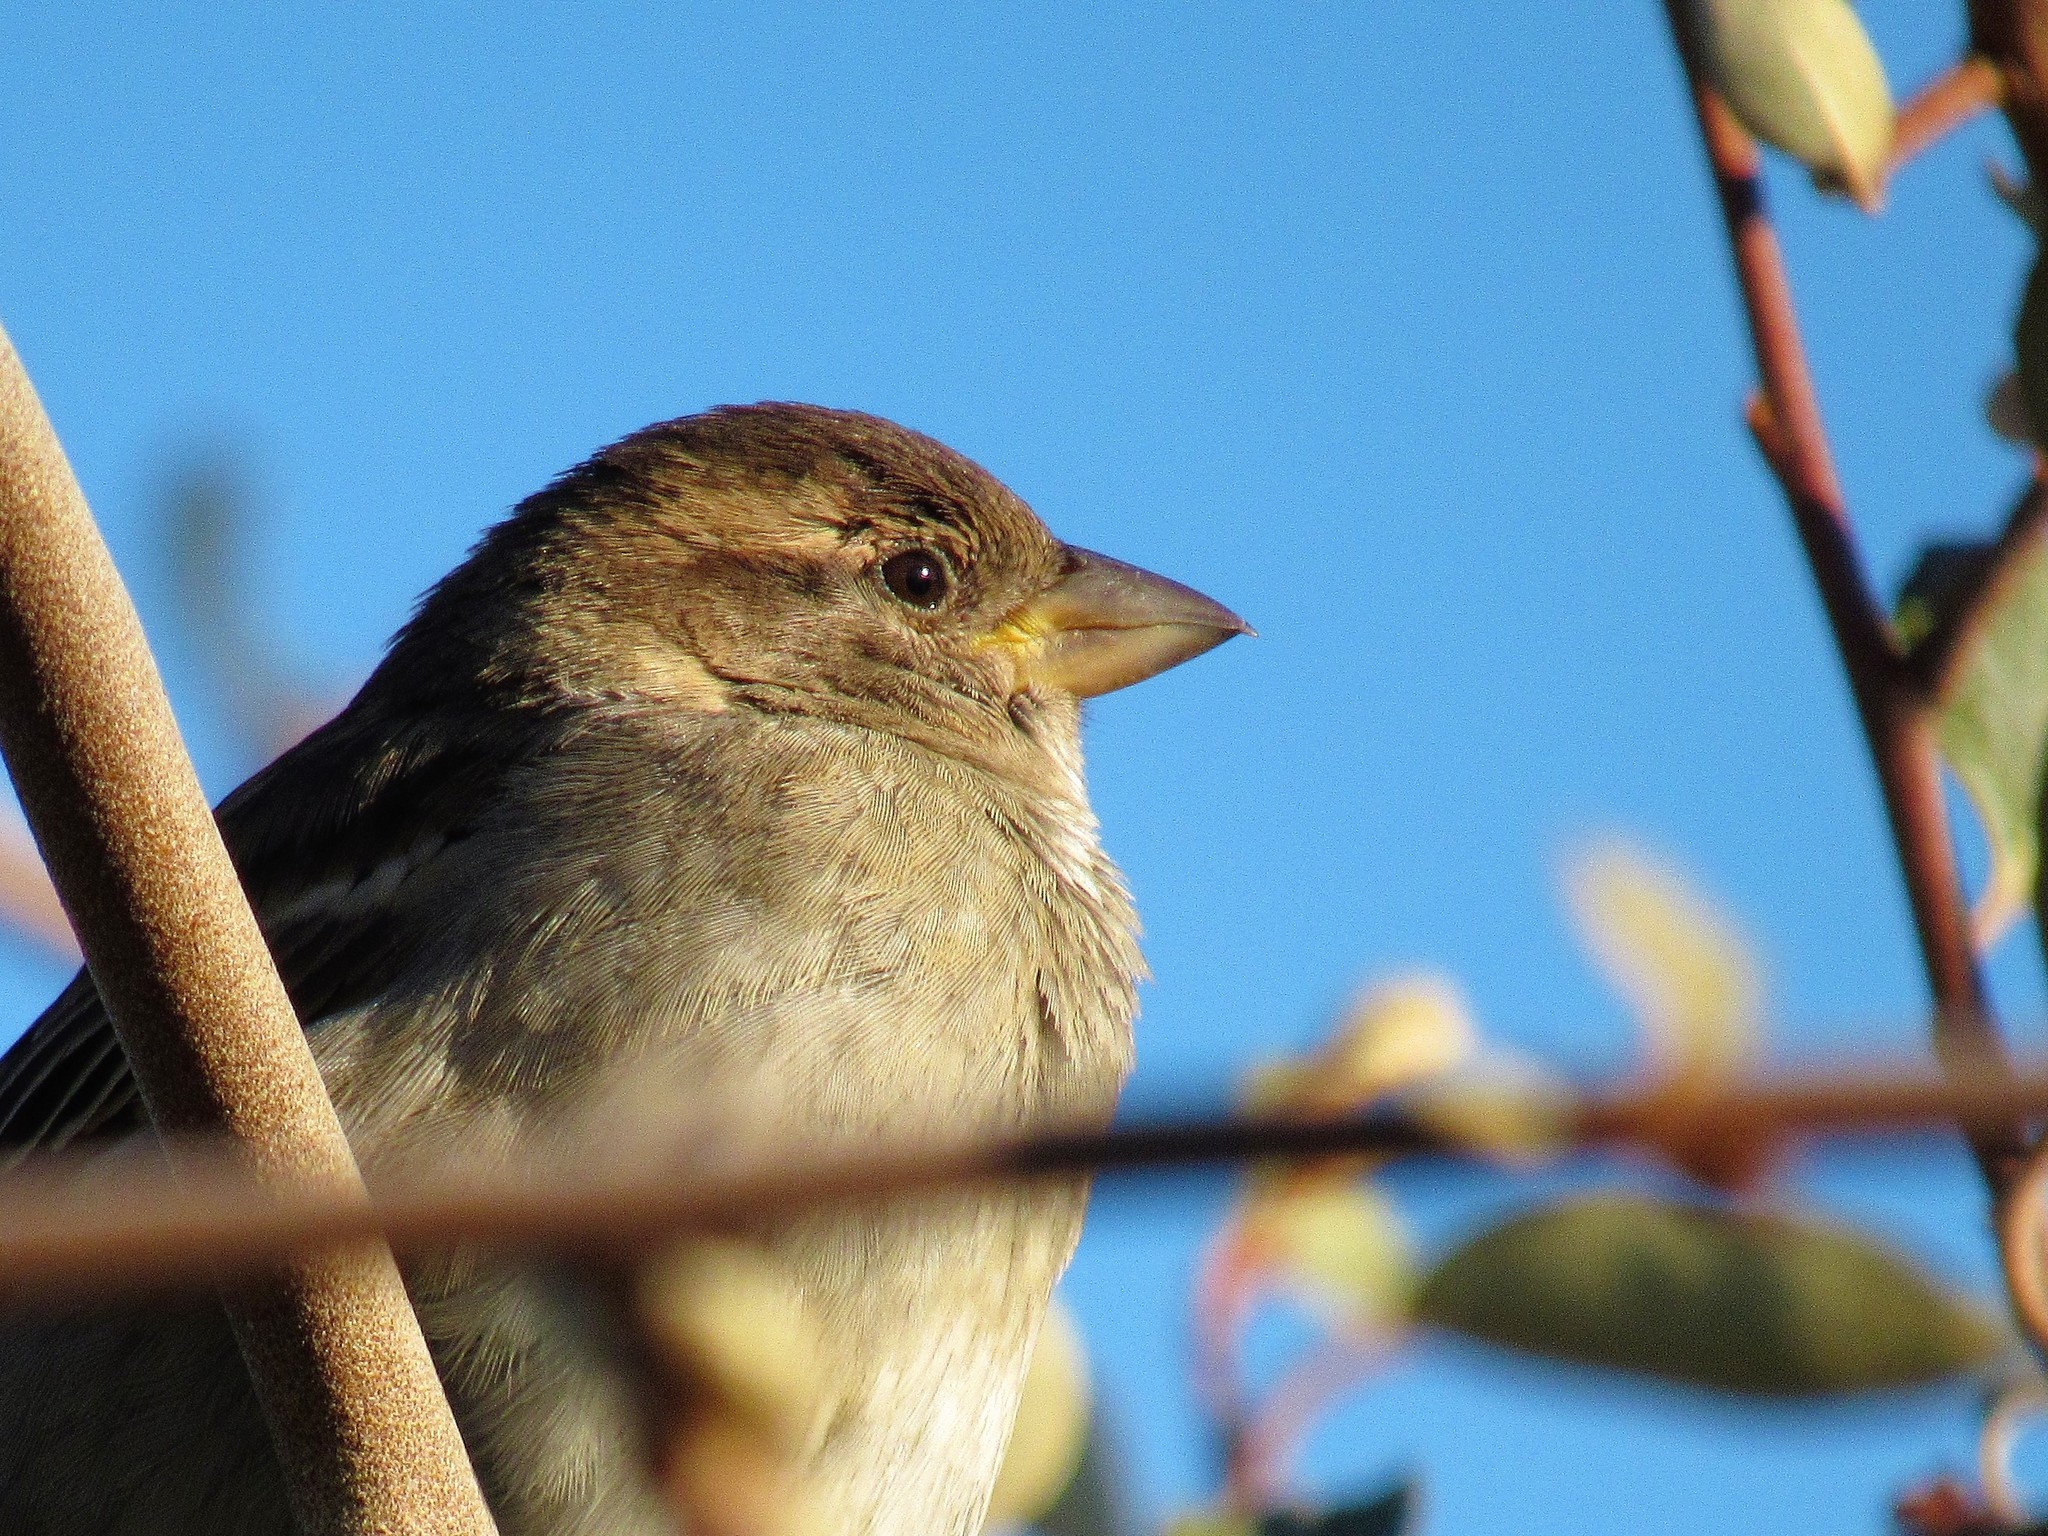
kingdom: Animalia
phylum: Chordata
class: Aves
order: Passeriformes
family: Passeridae
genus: Passer
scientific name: Passer domesticus
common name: House sparrow
